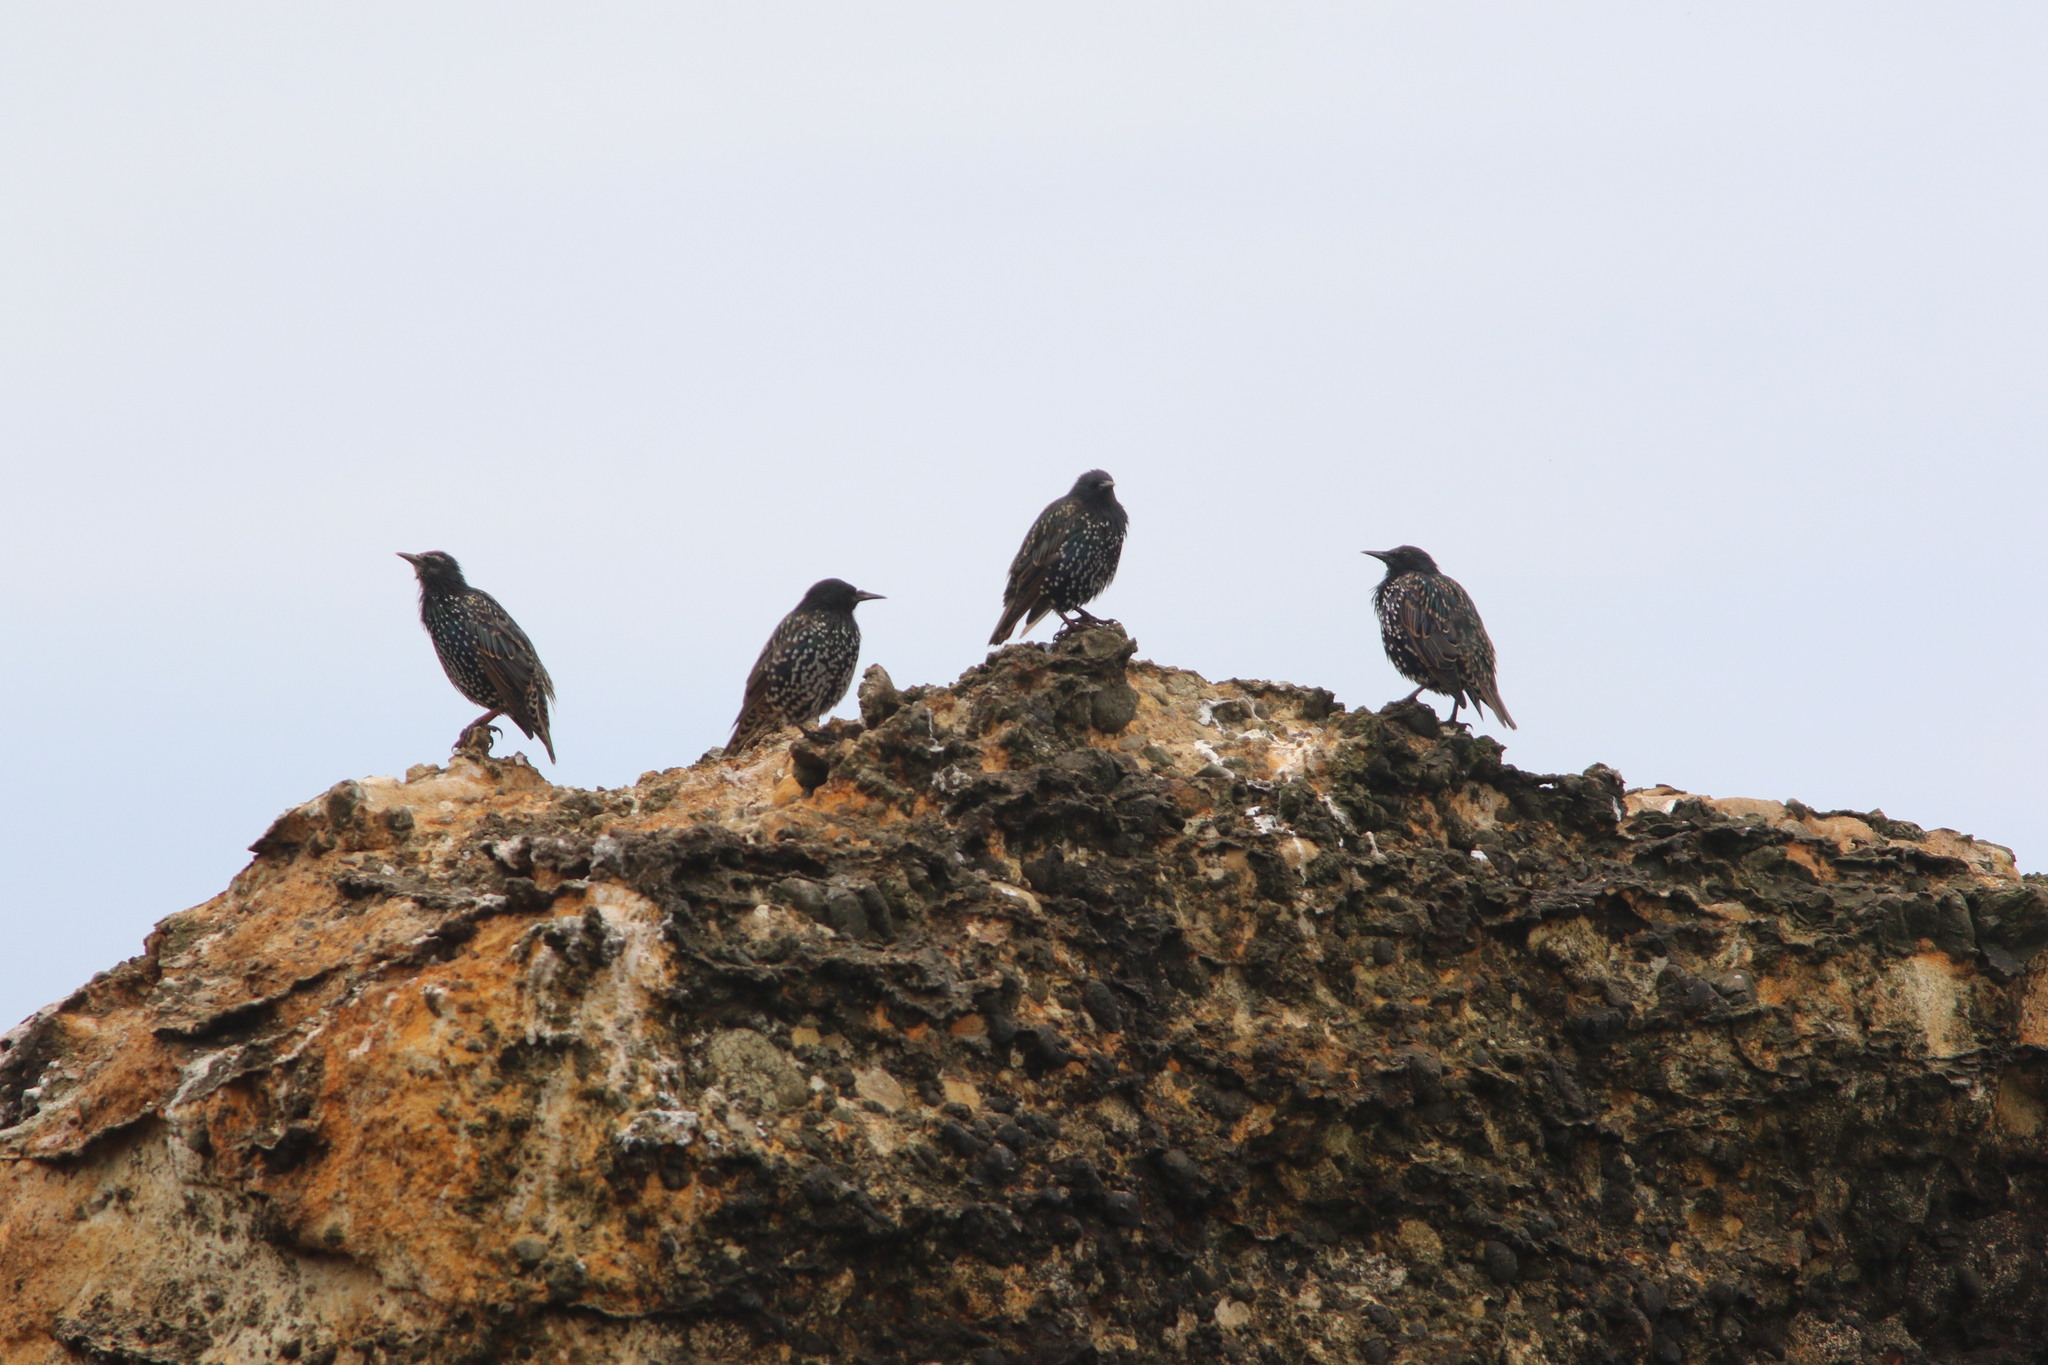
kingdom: Animalia
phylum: Chordata
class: Aves
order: Passeriformes
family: Sturnidae
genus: Sturnus
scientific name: Sturnus vulgaris
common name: Common starling
